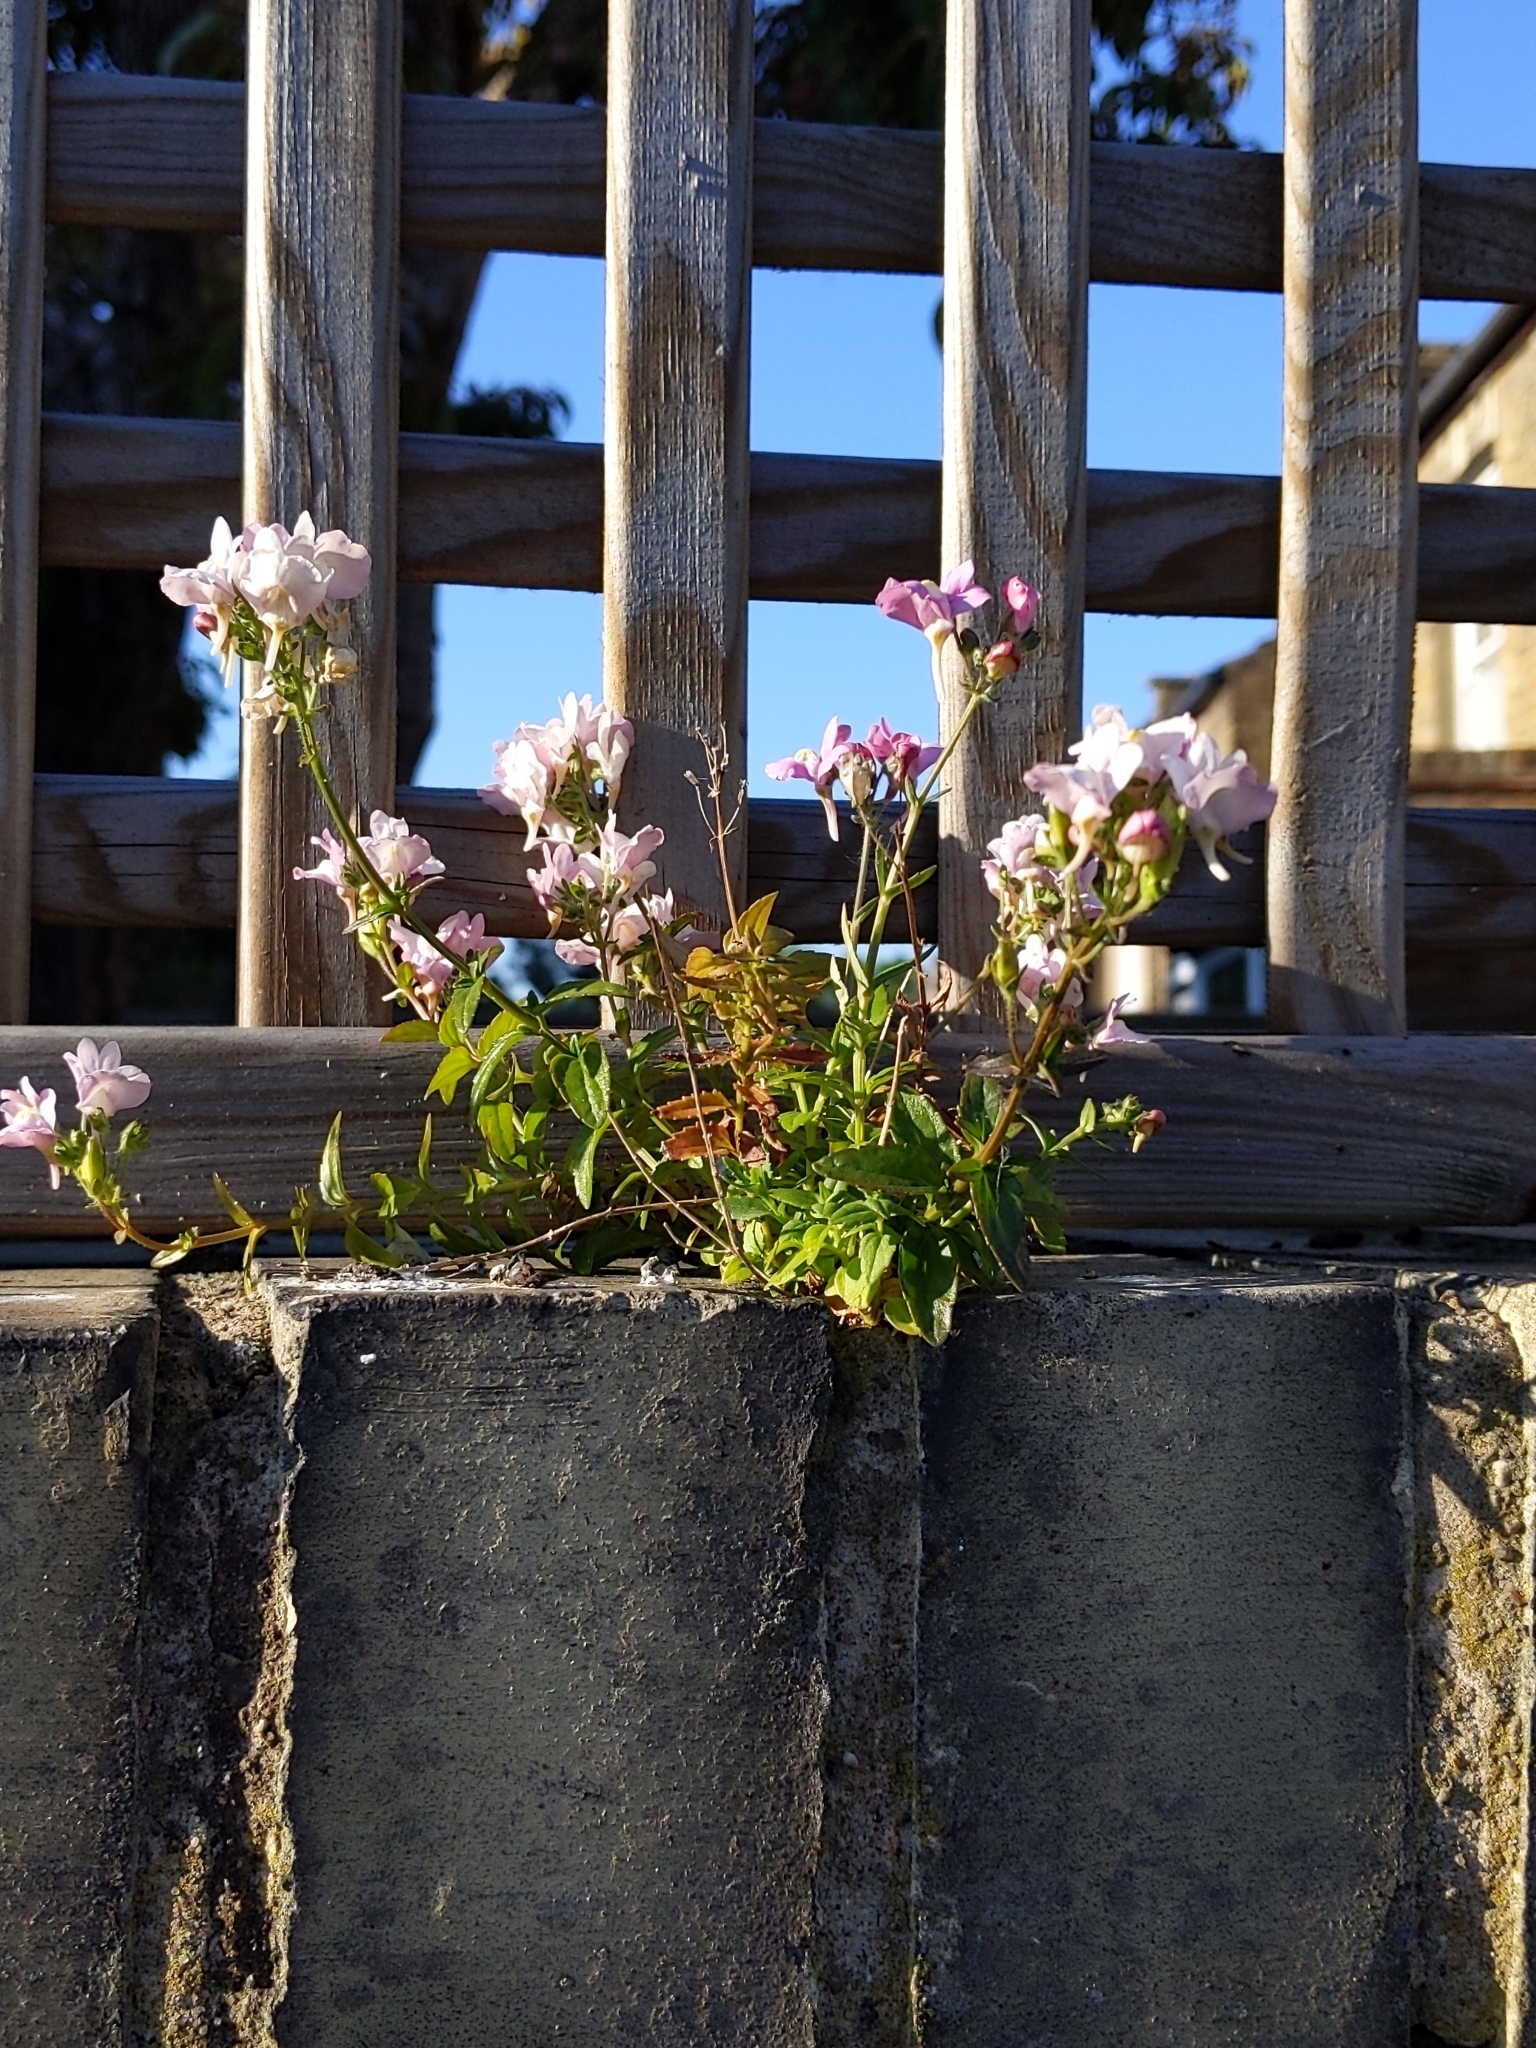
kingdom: Plantae
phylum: Tracheophyta
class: Magnoliopsida
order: Lamiales
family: Plantaginaceae
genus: Antirrhinum
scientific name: Antirrhinum majus
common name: Snapdragon
